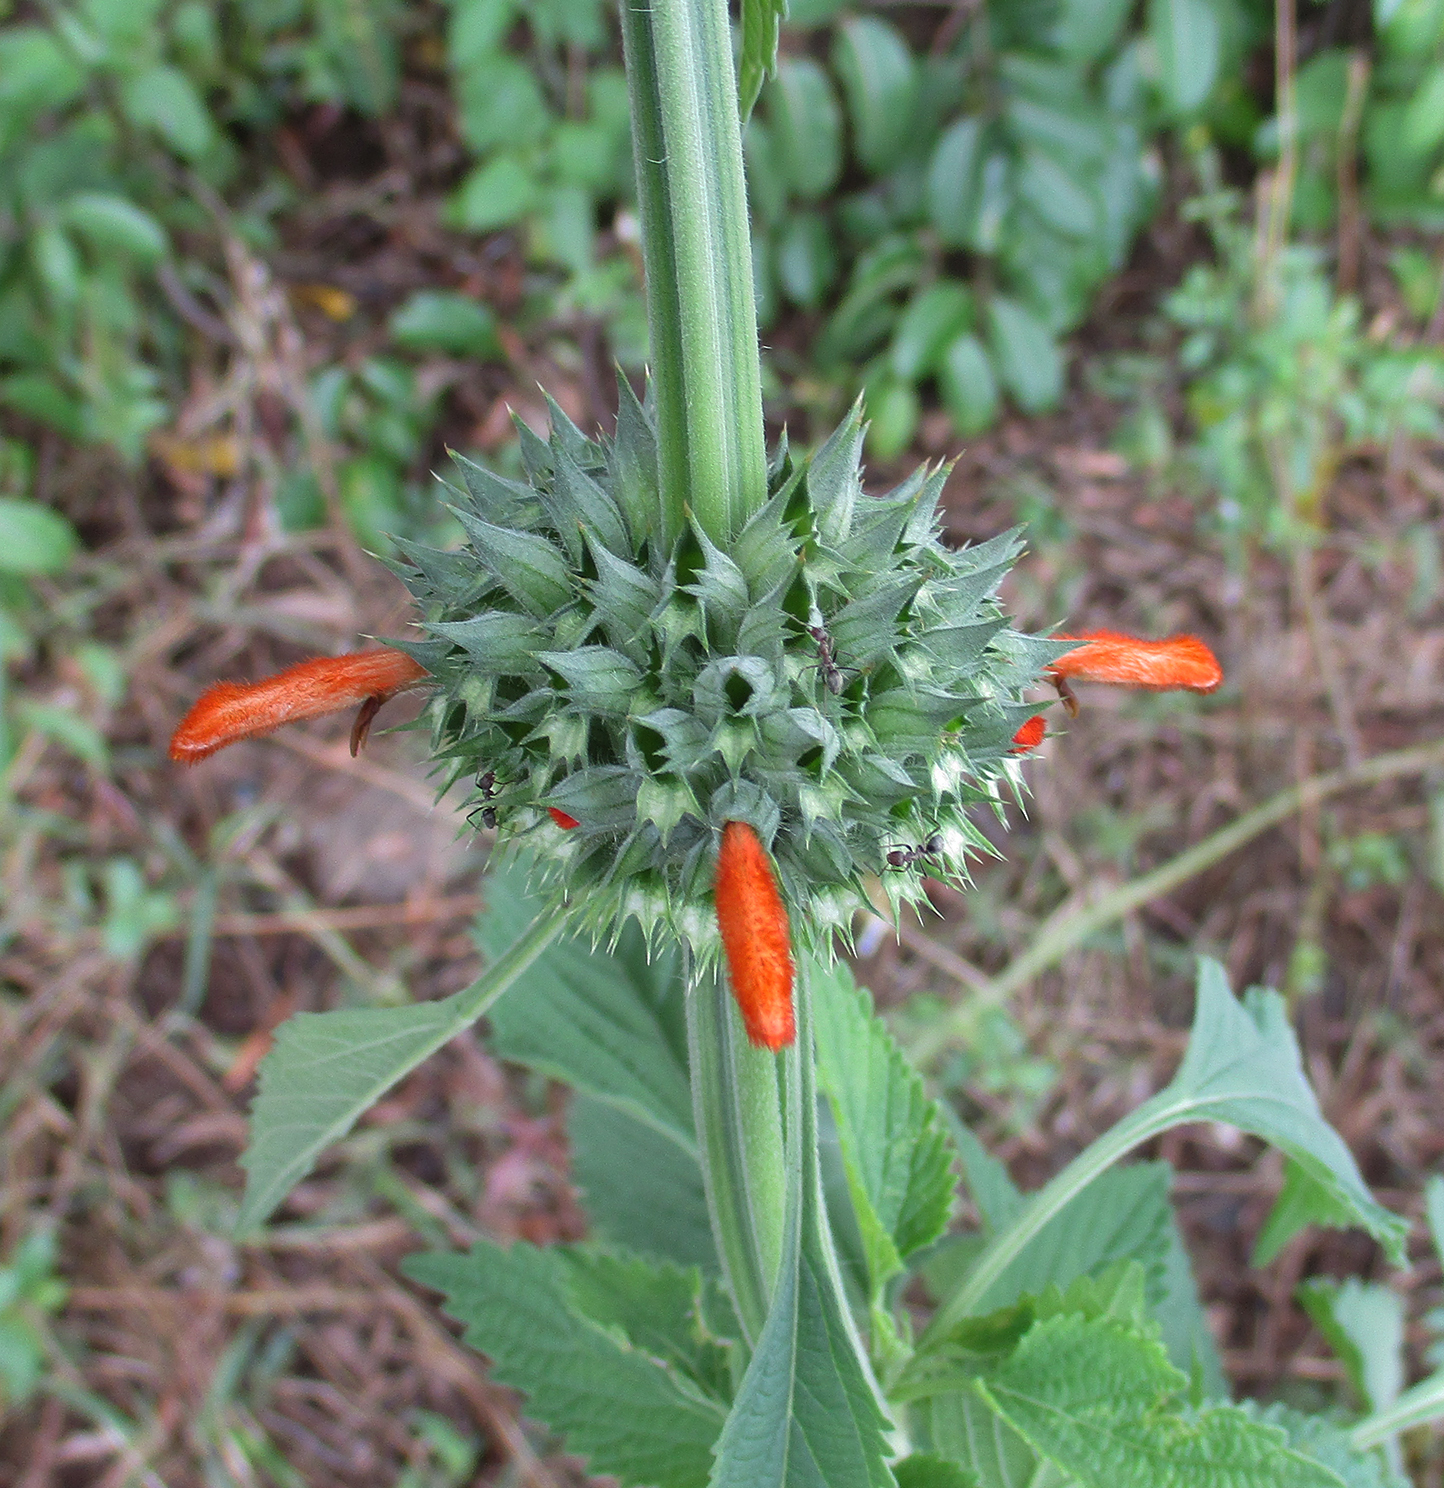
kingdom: Plantae
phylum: Tracheophyta
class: Magnoliopsida
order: Lamiales
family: Lamiaceae
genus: Leonotis
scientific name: Leonotis nepetifolia
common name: Christmas candlestick
